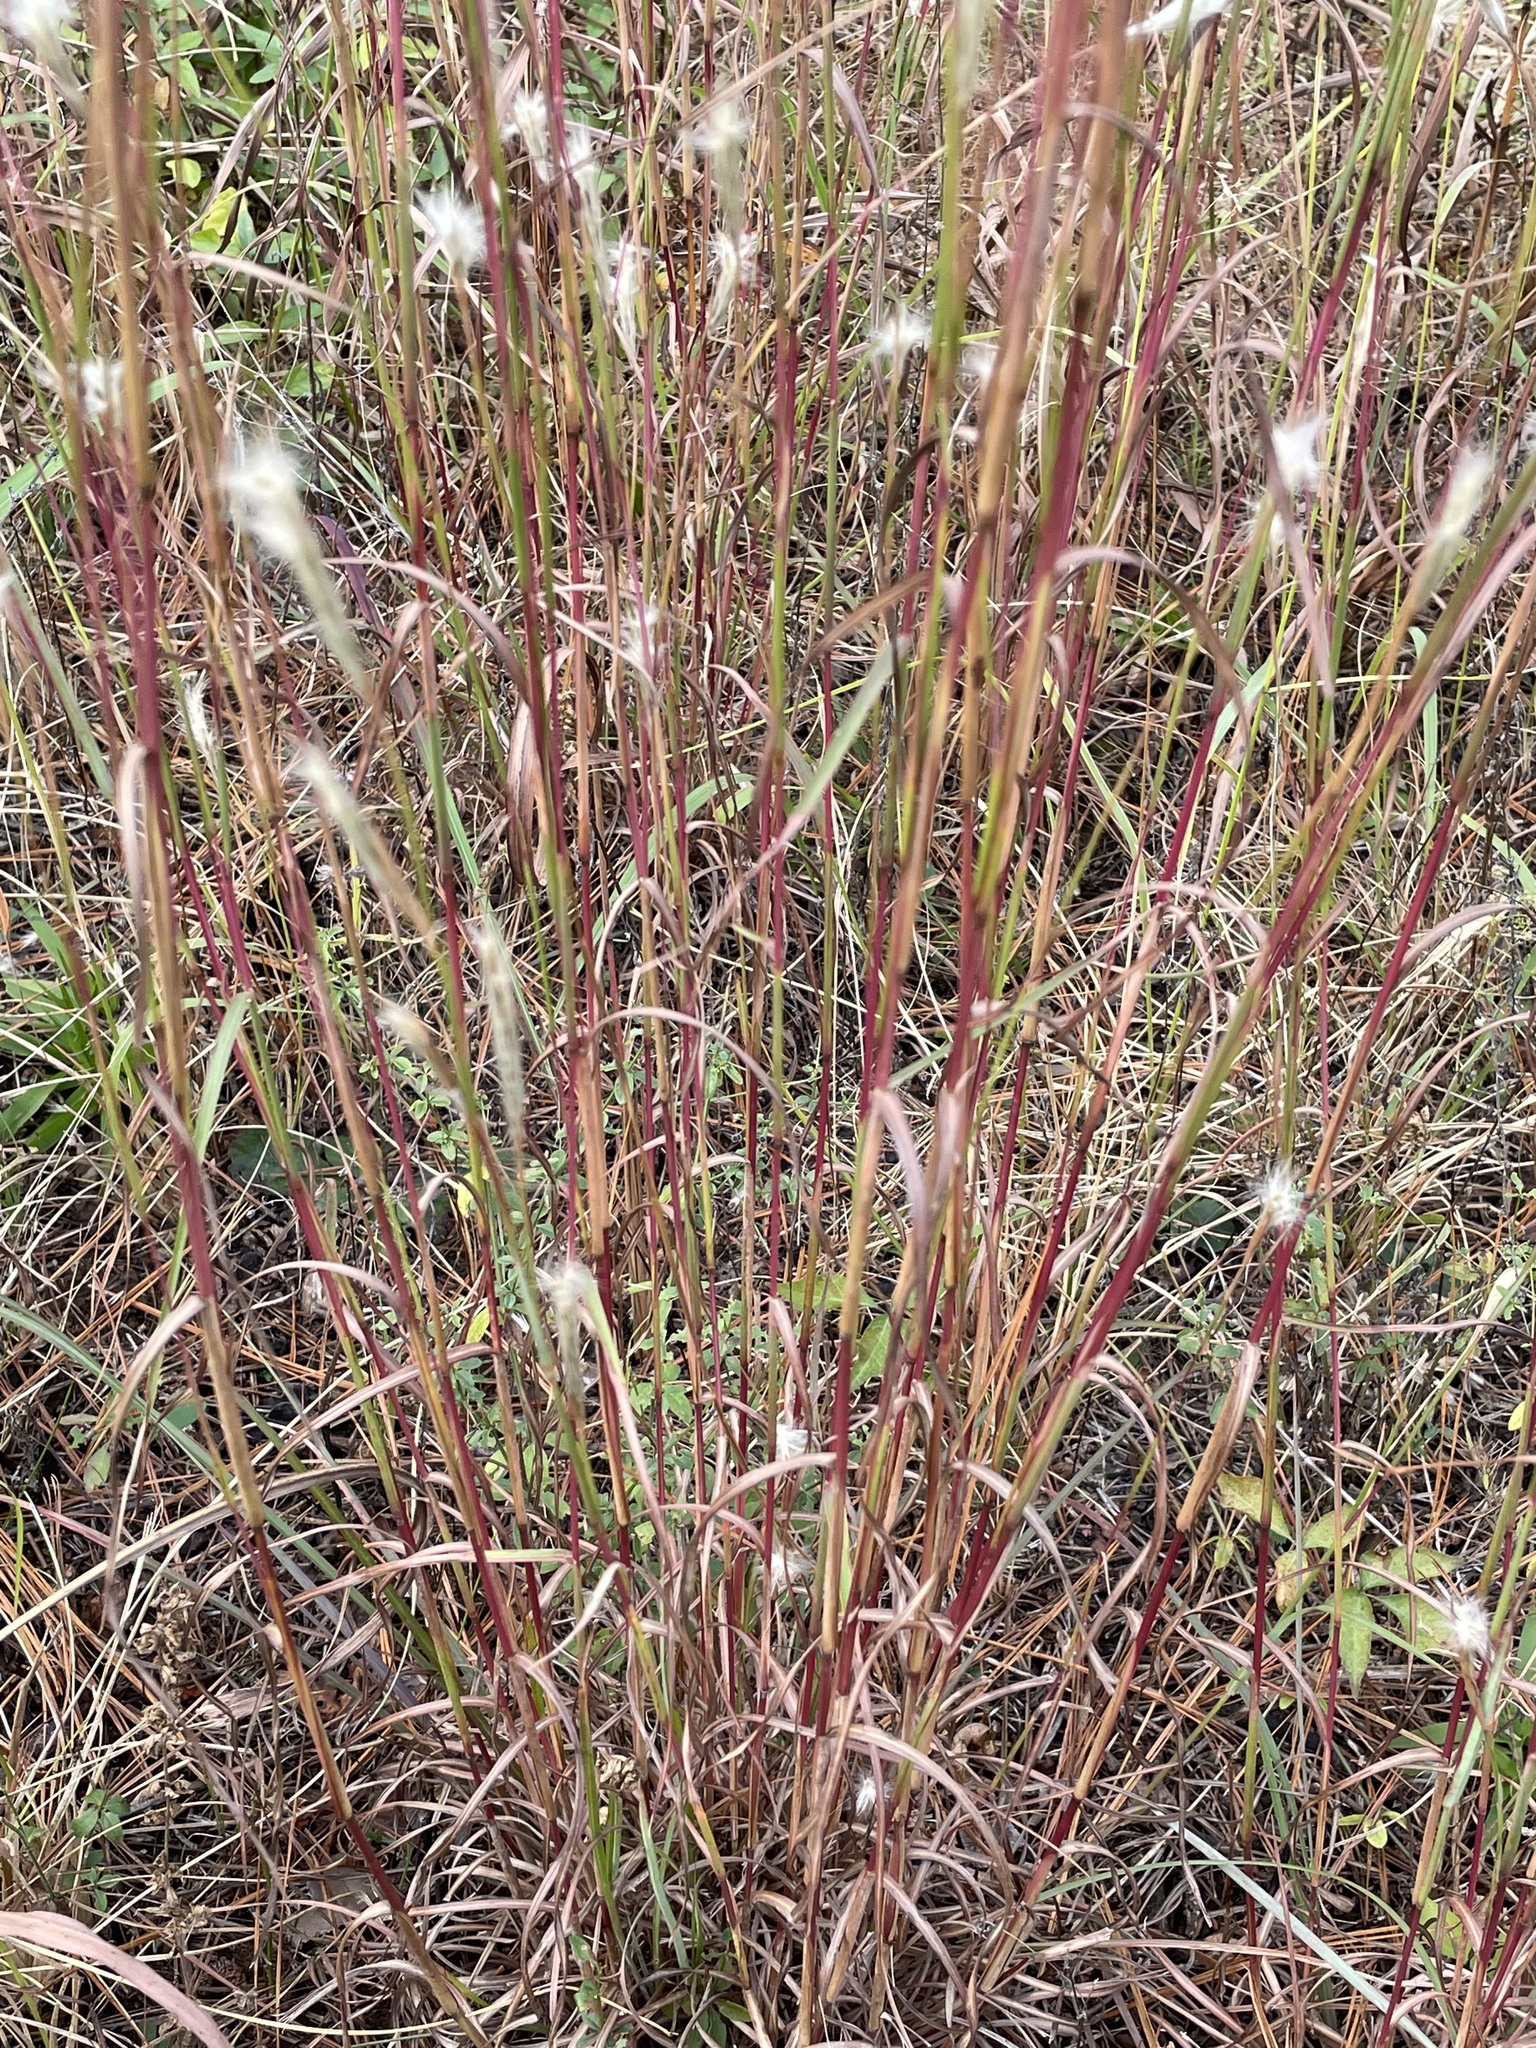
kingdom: Plantae
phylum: Tracheophyta
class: Liliopsida
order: Poales
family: Poaceae
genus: Andropogon
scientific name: Andropogon ternarius
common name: Split bluestem
